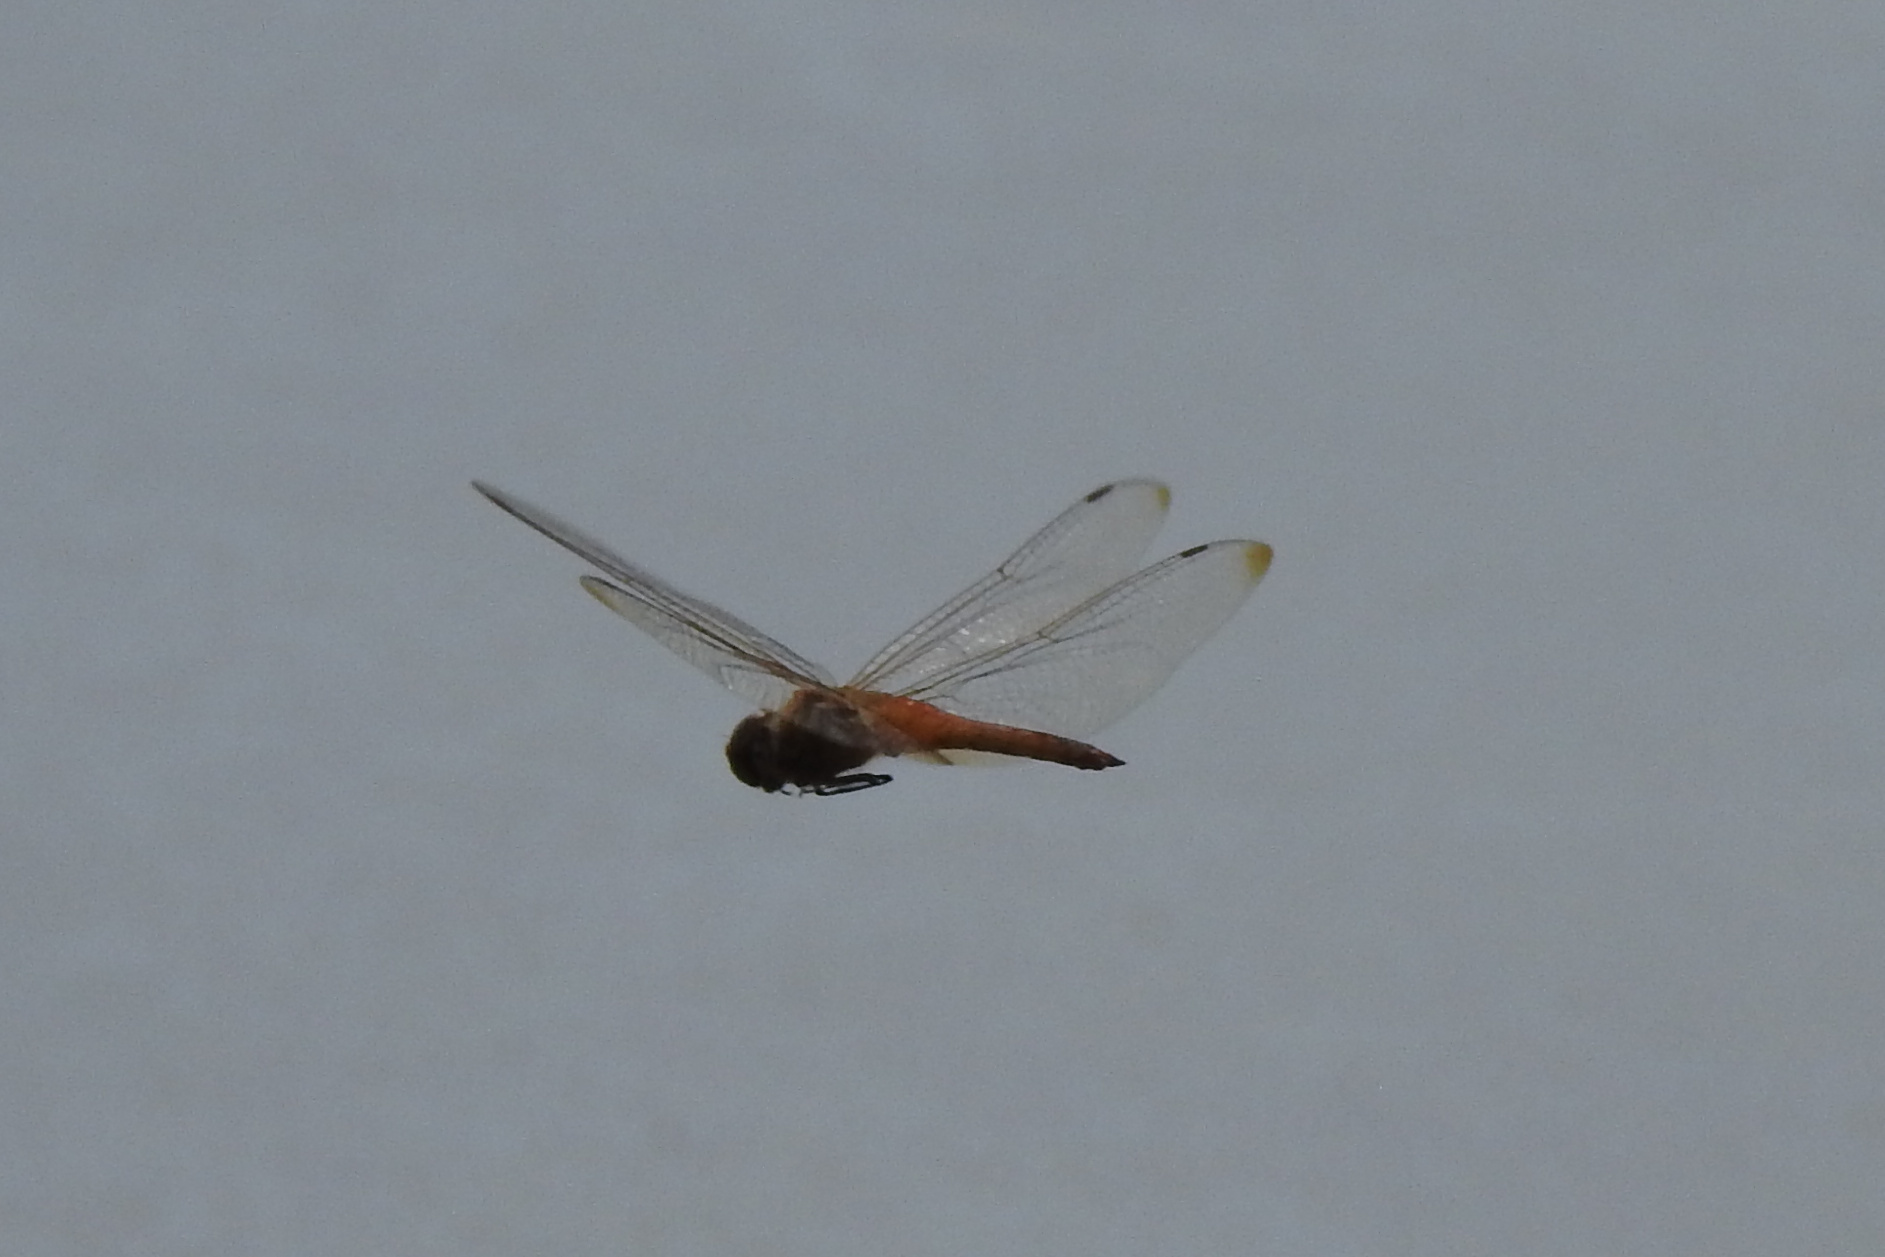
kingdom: Animalia
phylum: Arthropoda
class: Insecta
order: Odonata
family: Libellulidae
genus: Pantala
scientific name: Pantala flavescens
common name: Wandering glider
